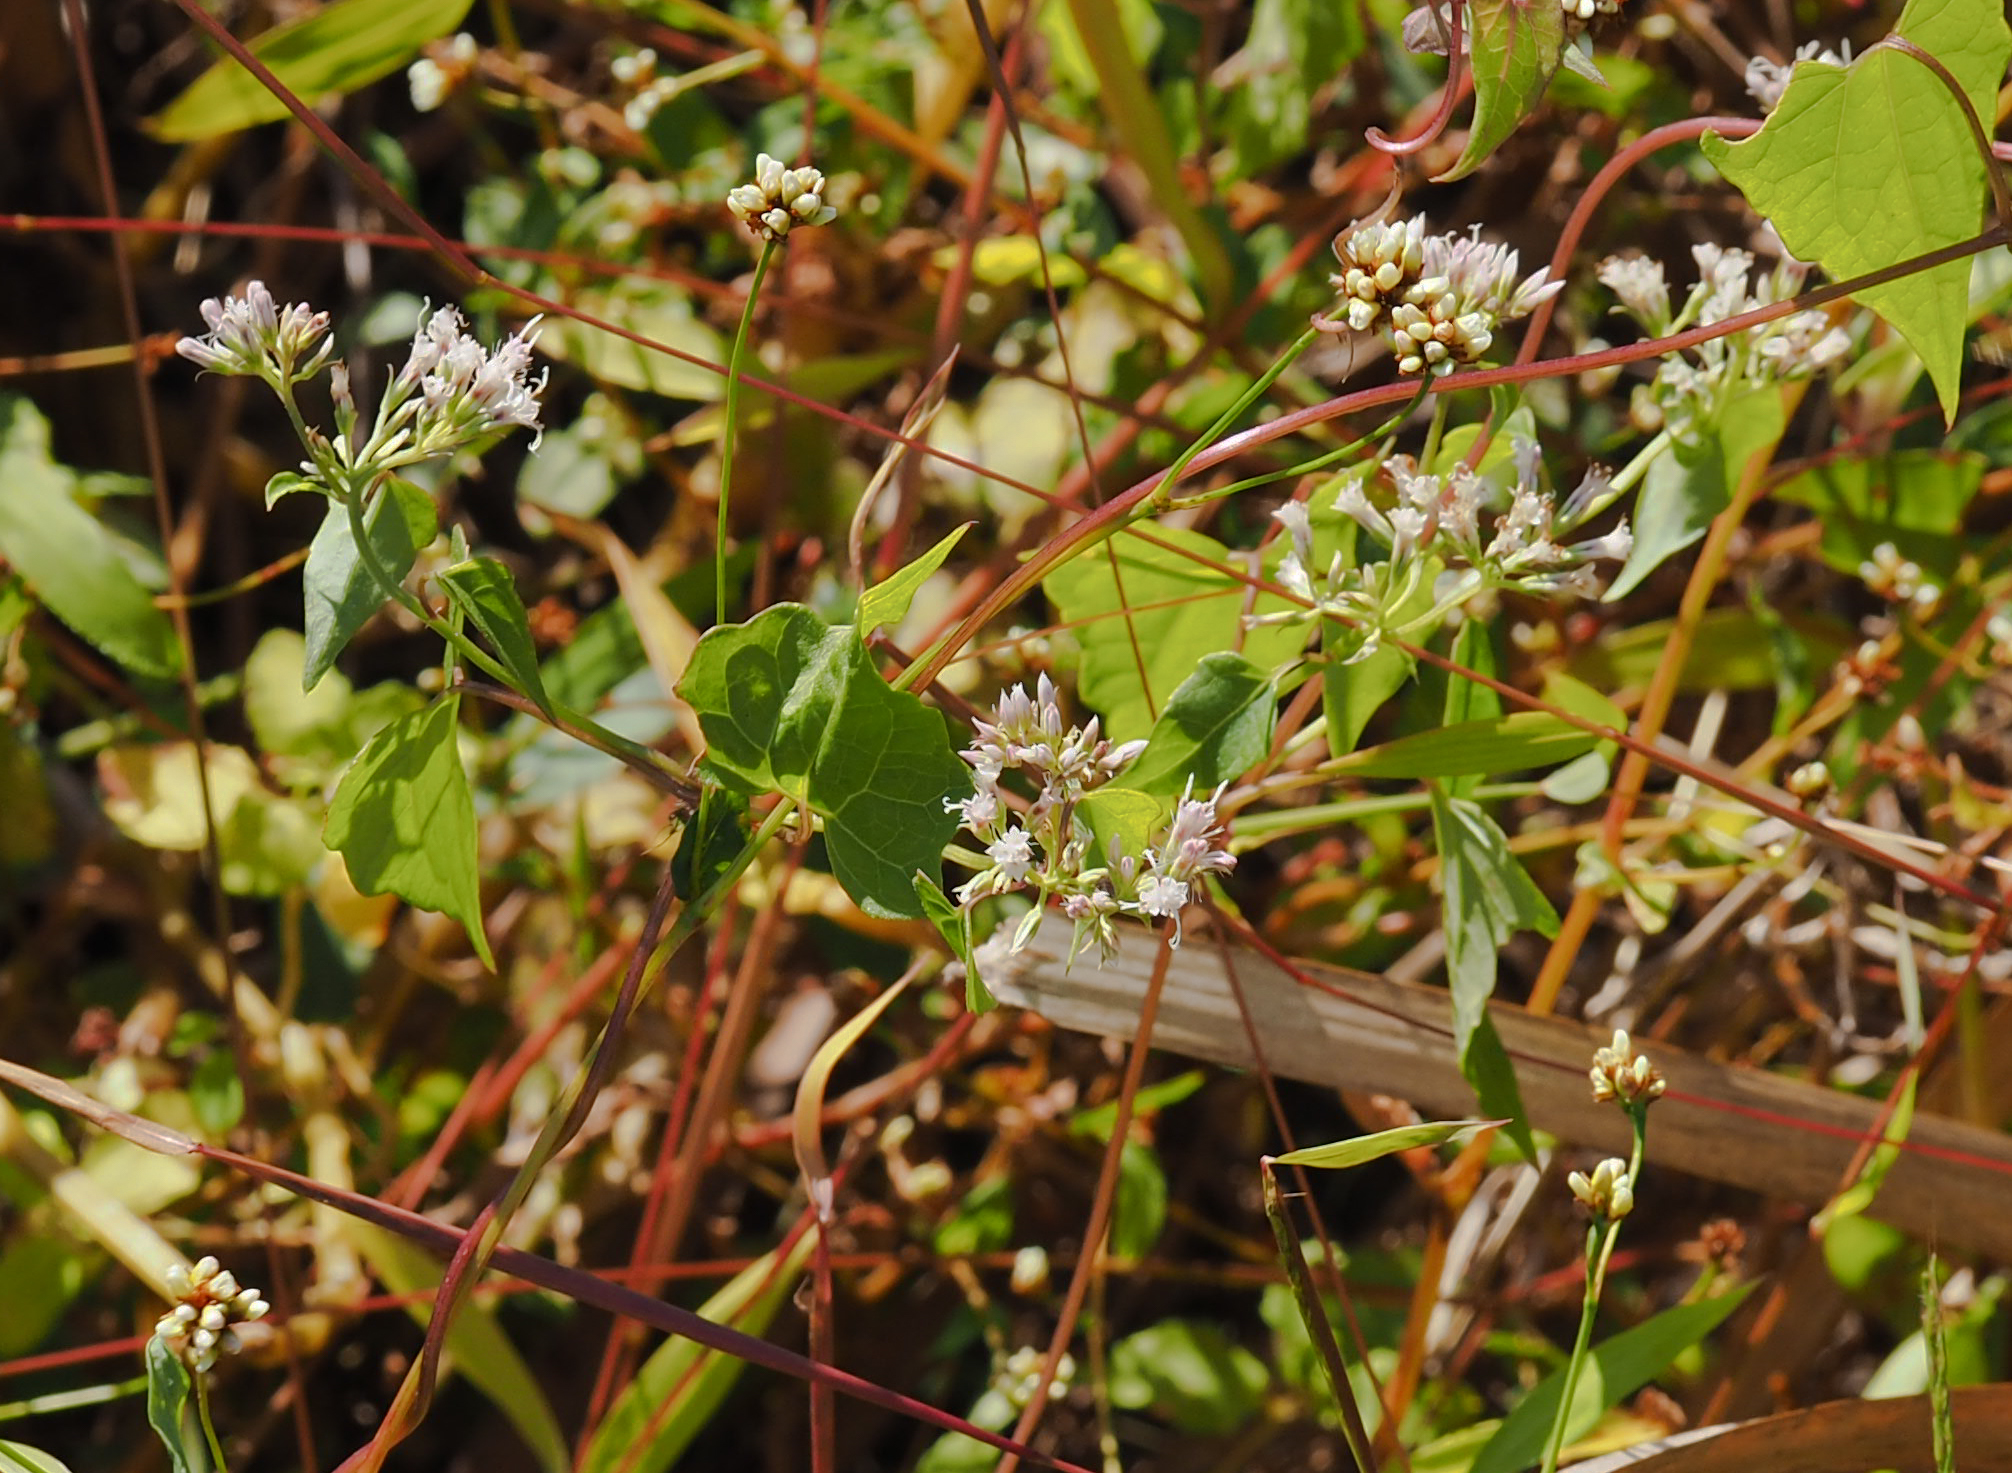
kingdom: Plantae
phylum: Tracheophyta
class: Magnoliopsida
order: Asterales
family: Asteraceae
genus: Mikania
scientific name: Mikania scandens
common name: Climbing hempvine
